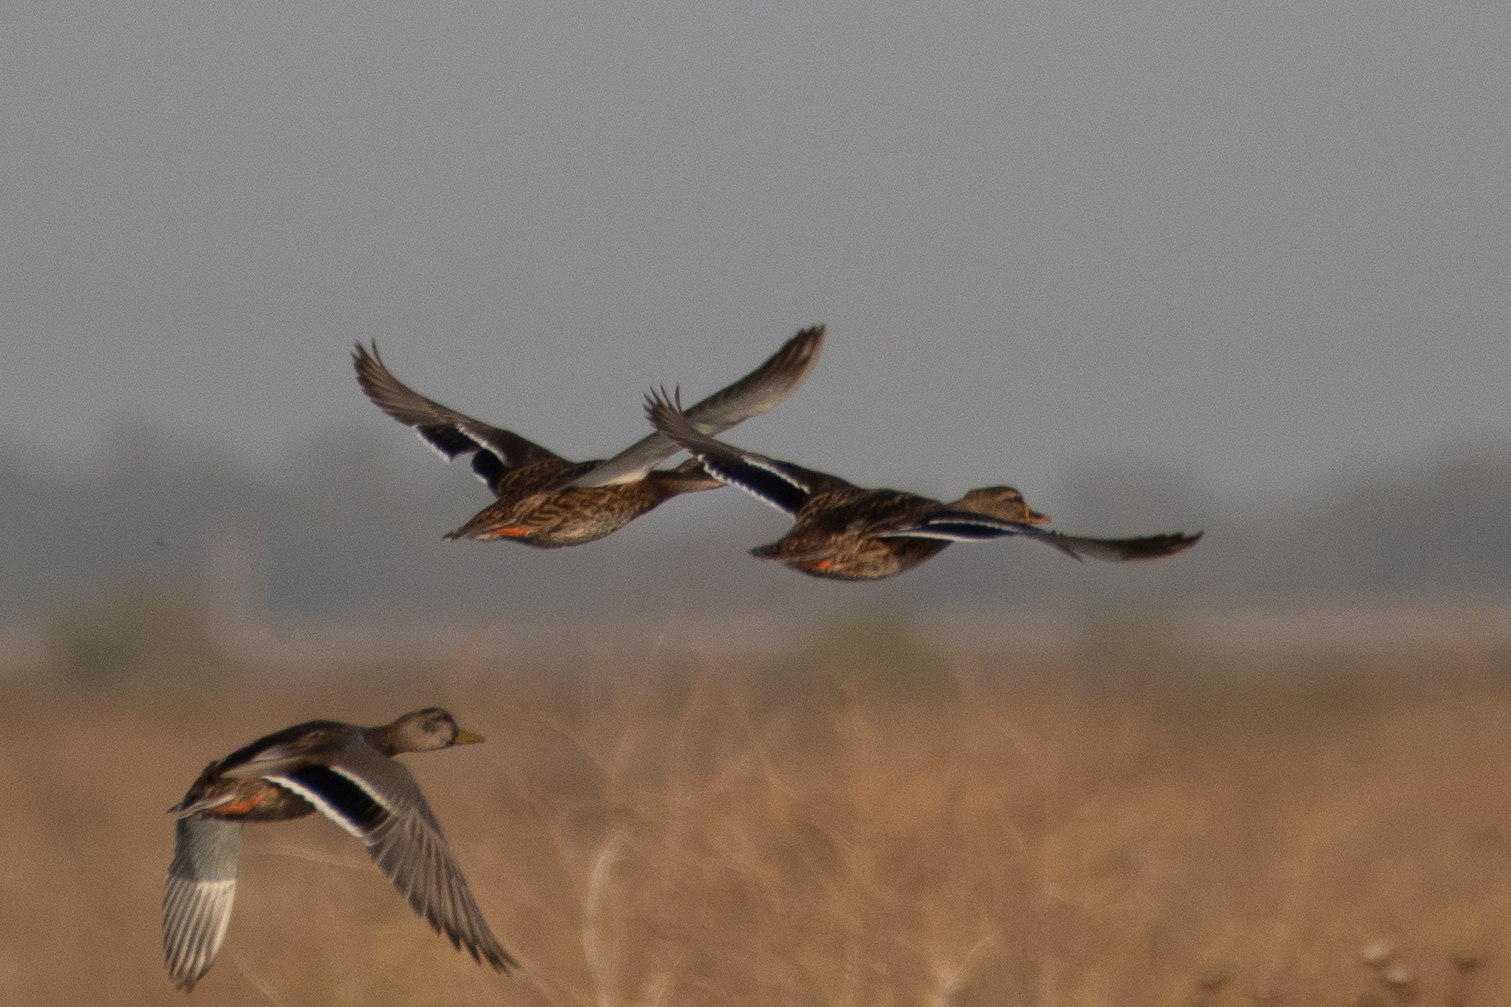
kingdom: Animalia
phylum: Chordata
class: Aves
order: Anseriformes
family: Anatidae
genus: Anas
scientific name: Anas platyrhynchos
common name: Mallard
